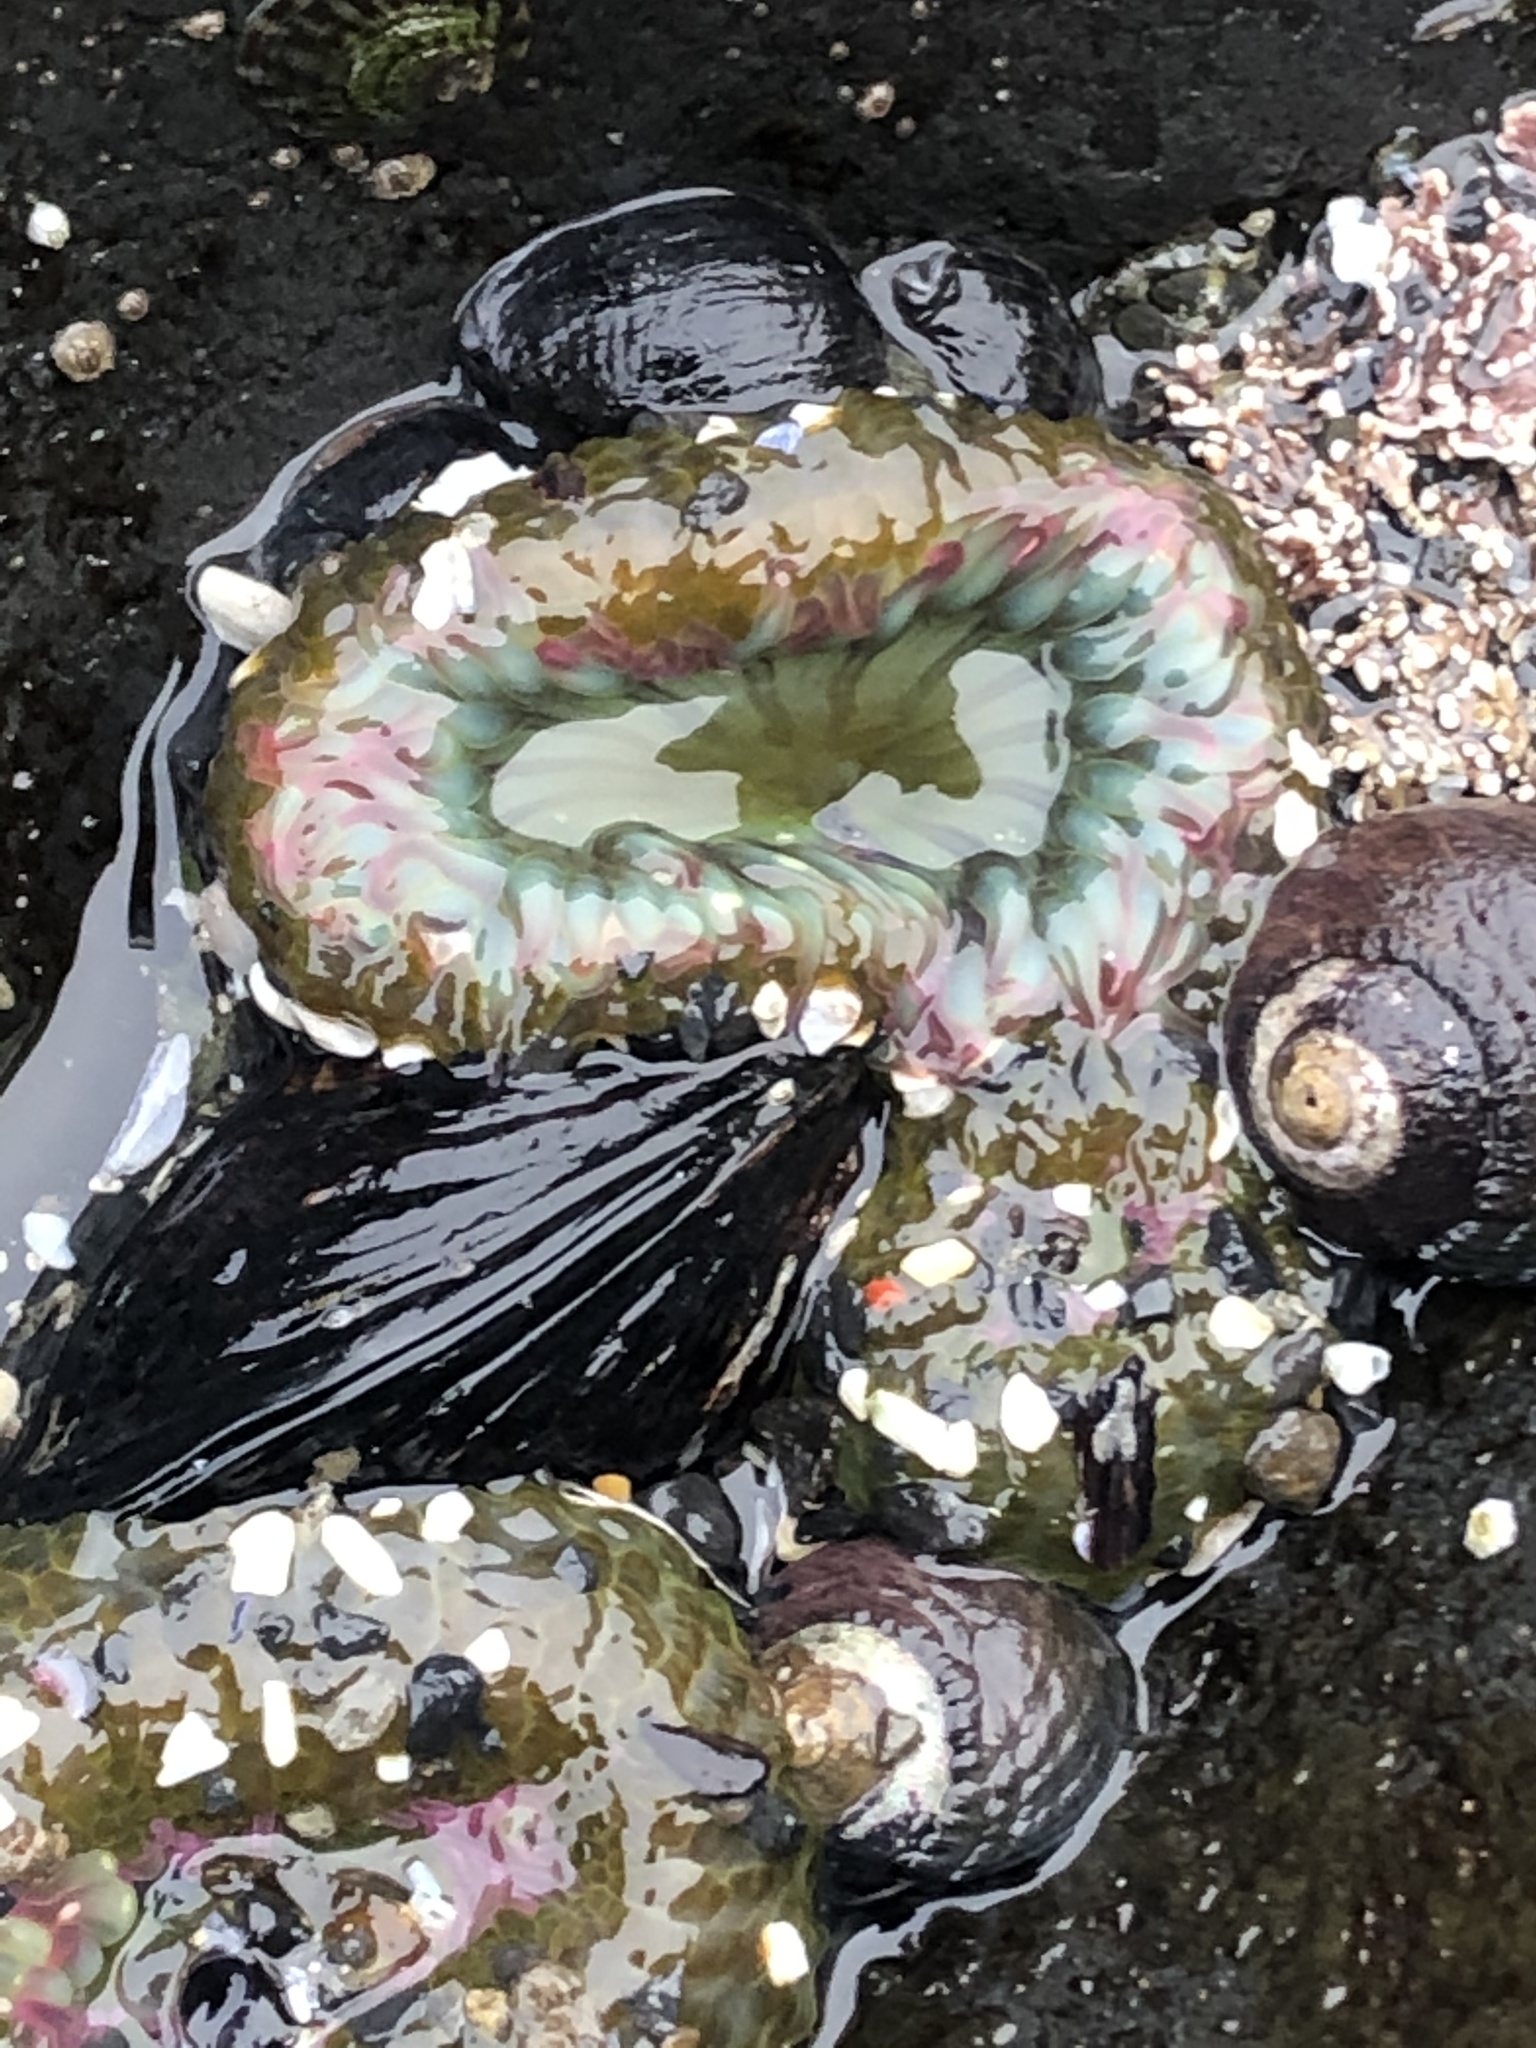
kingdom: Animalia
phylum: Cnidaria
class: Anthozoa
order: Actiniaria
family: Actiniidae
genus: Anthopleura
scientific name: Anthopleura elegantissima
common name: Clonal anemone
